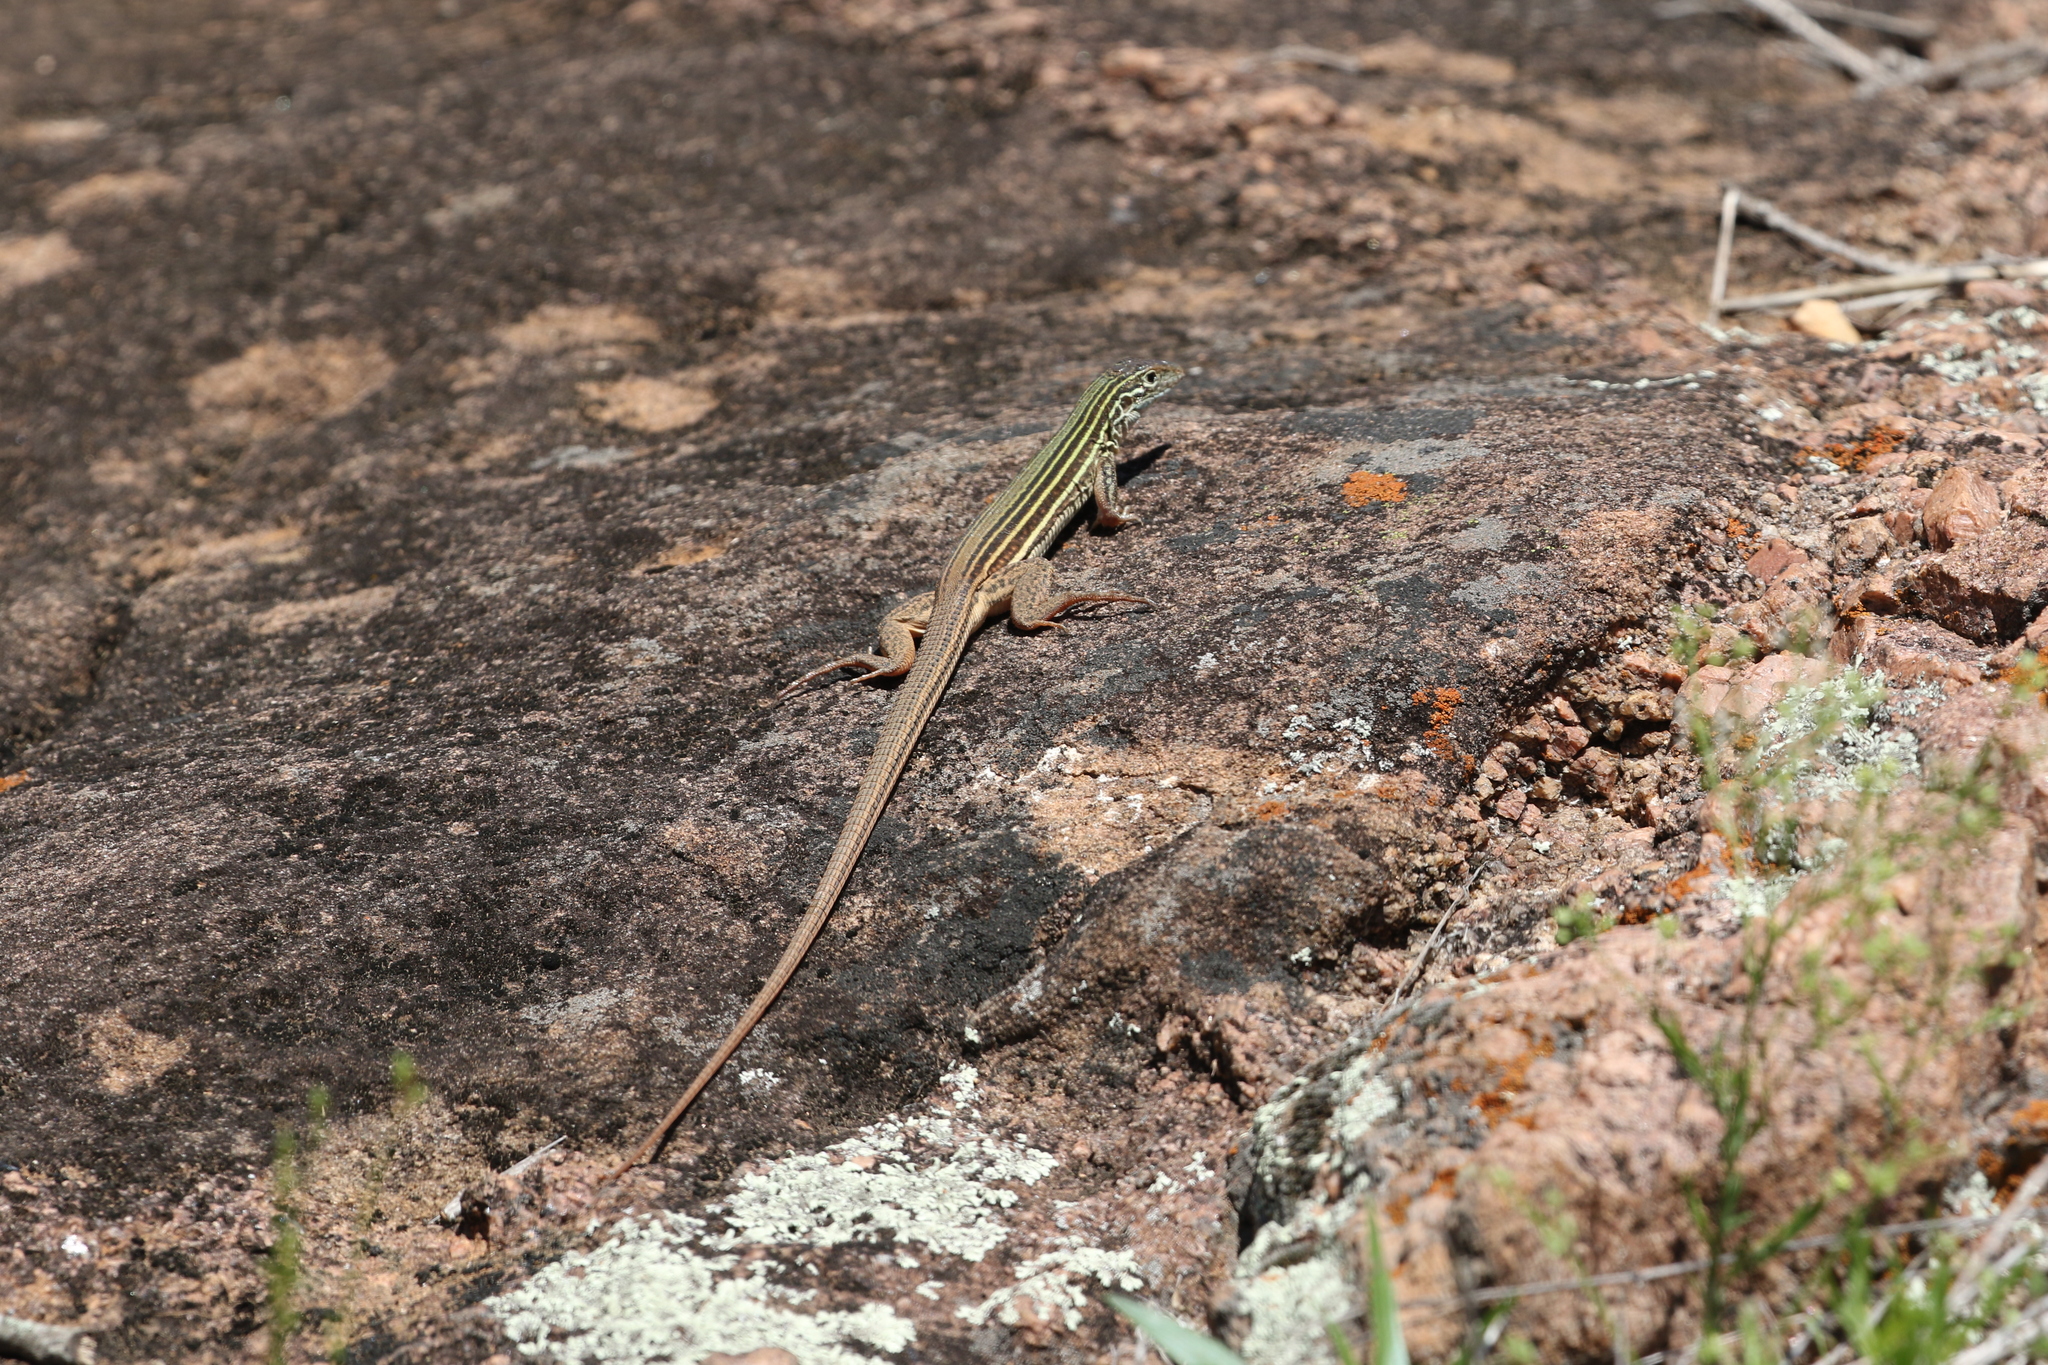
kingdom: Animalia
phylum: Chordata
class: Squamata
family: Teiidae
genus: Aspidoscelis
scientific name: Aspidoscelis gularis
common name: Eastern spotted whiptail
